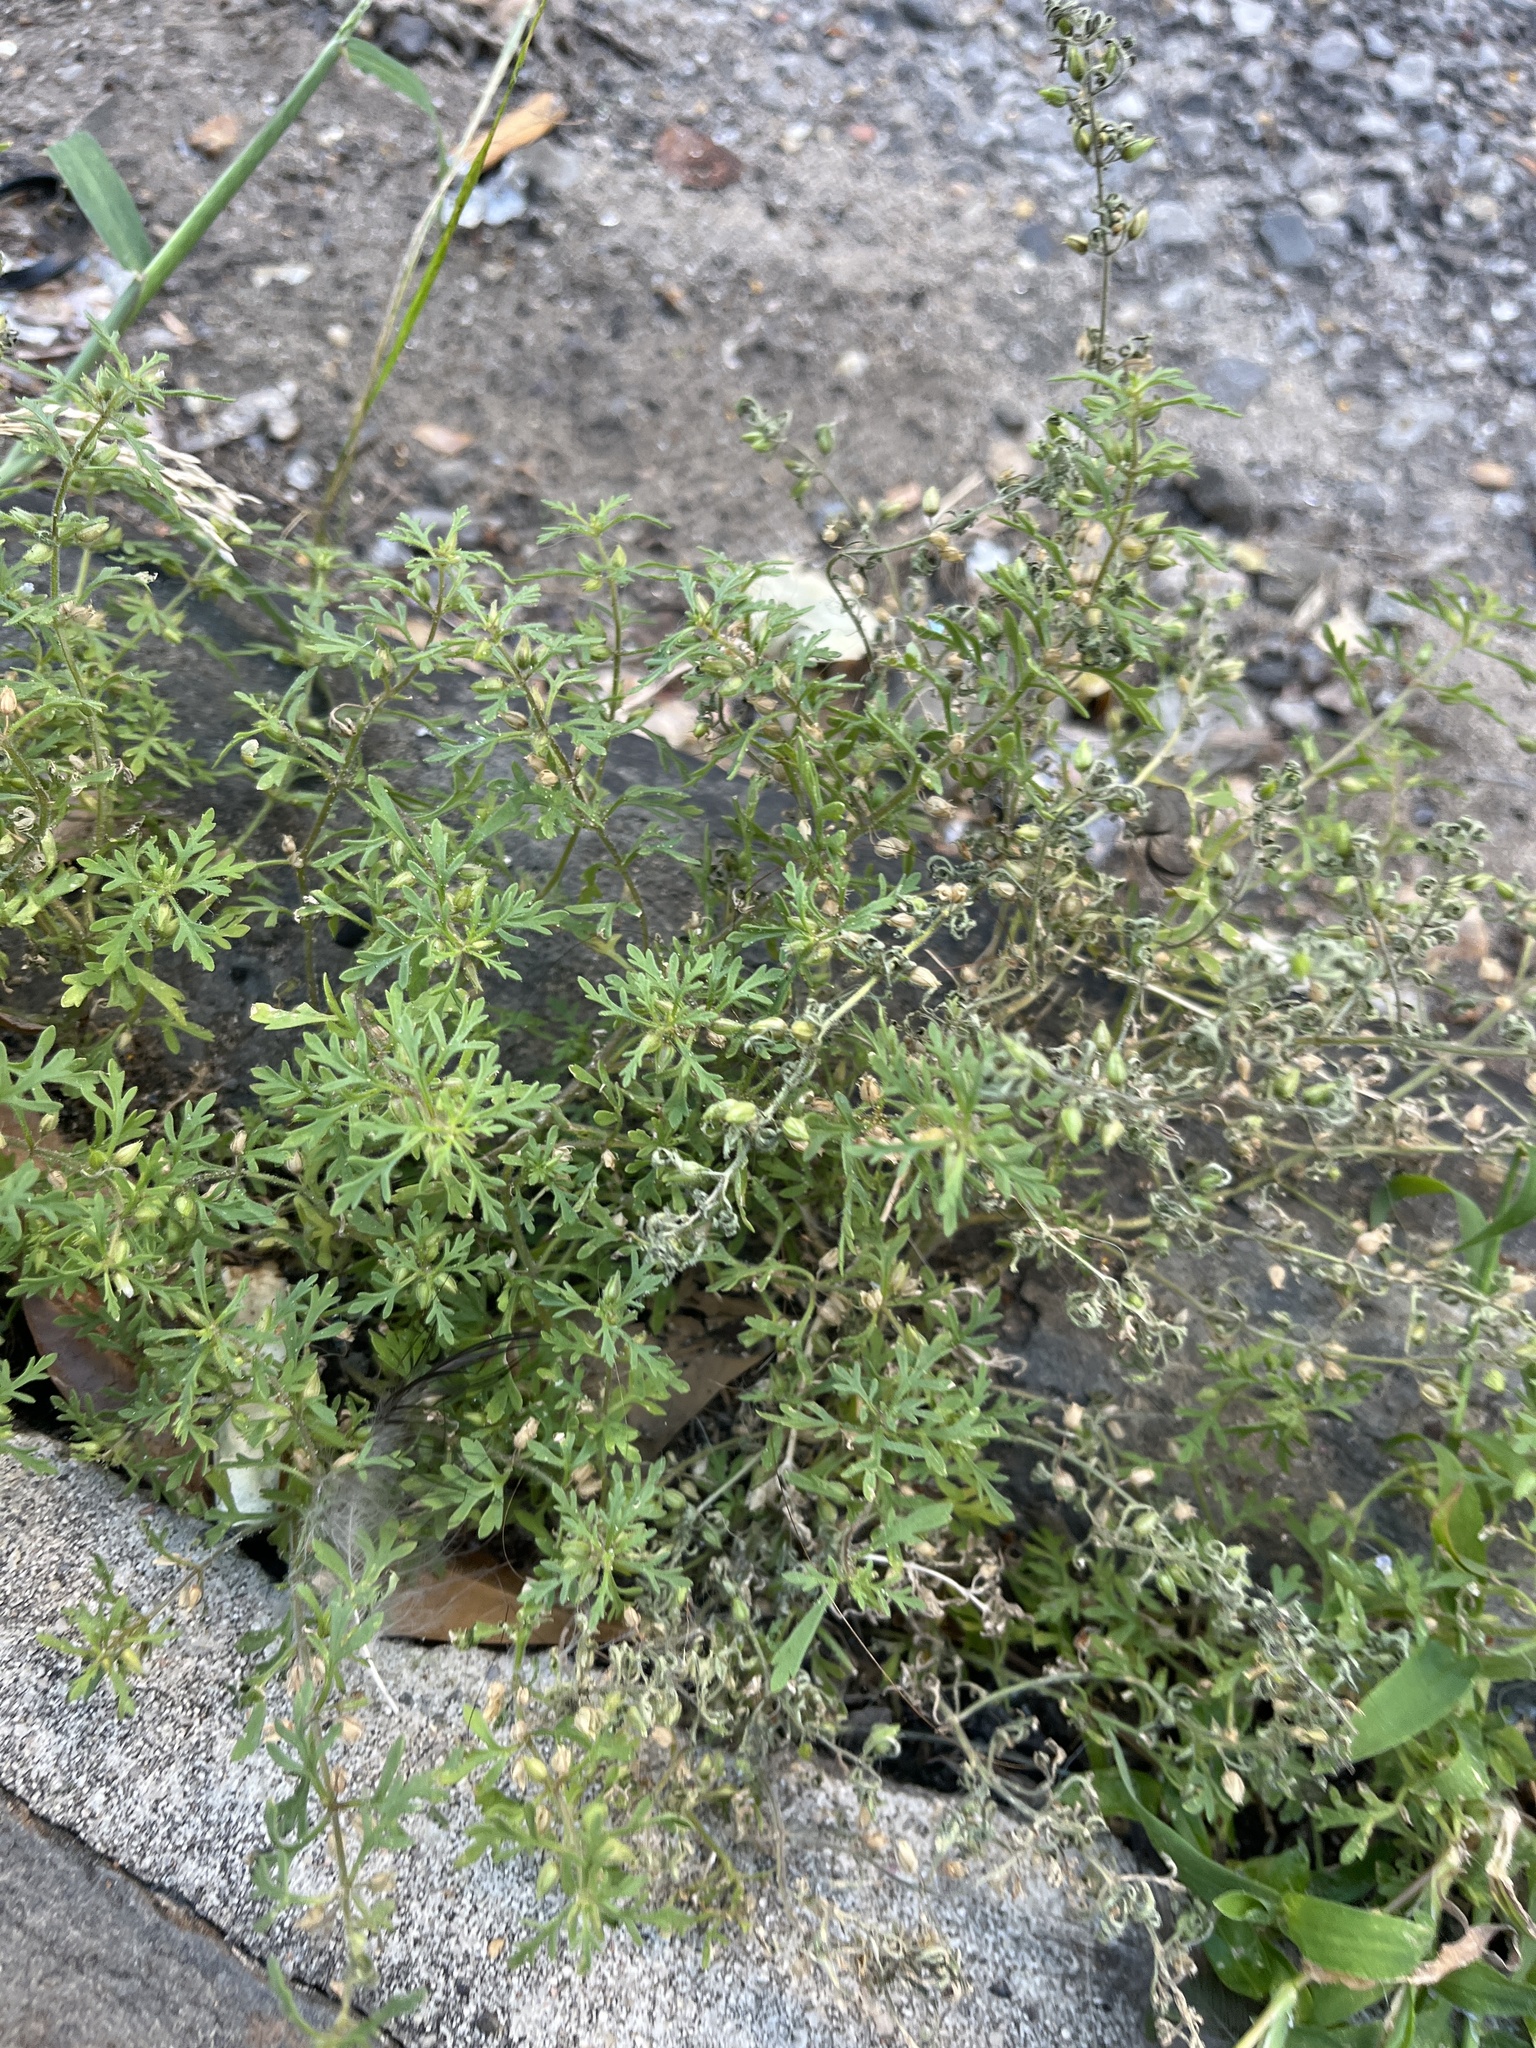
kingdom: Plantae
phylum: Tracheophyta
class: Magnoliopsida
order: Lamiales
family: Plantaginaceae
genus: Leucospora
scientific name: Leucospora multifida
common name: Narrow-leaf paleseed
